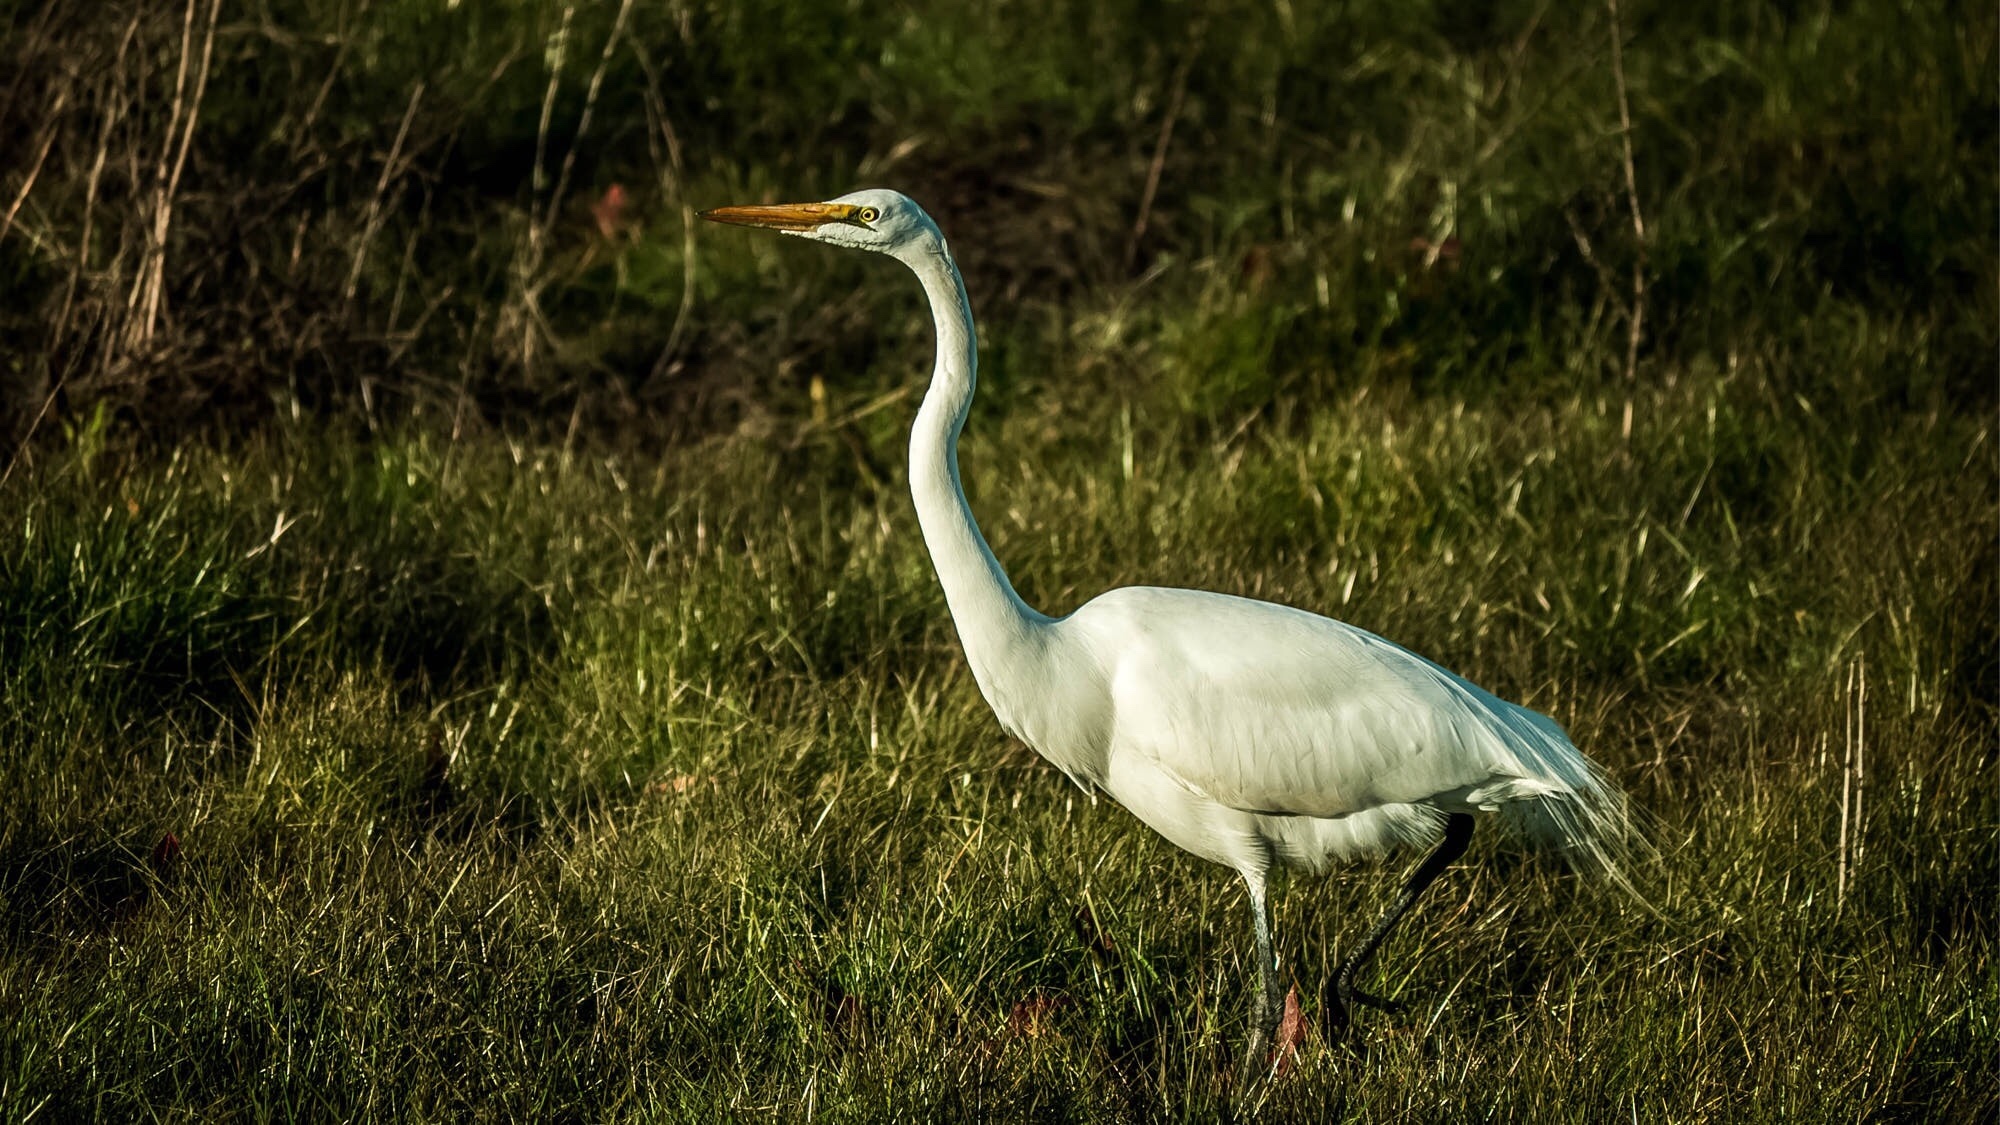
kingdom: Animalia
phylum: Chordata
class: Aves
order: Pelecaniformes
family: Ardeidae
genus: Ardea
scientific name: Ardea alba
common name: Great egret
